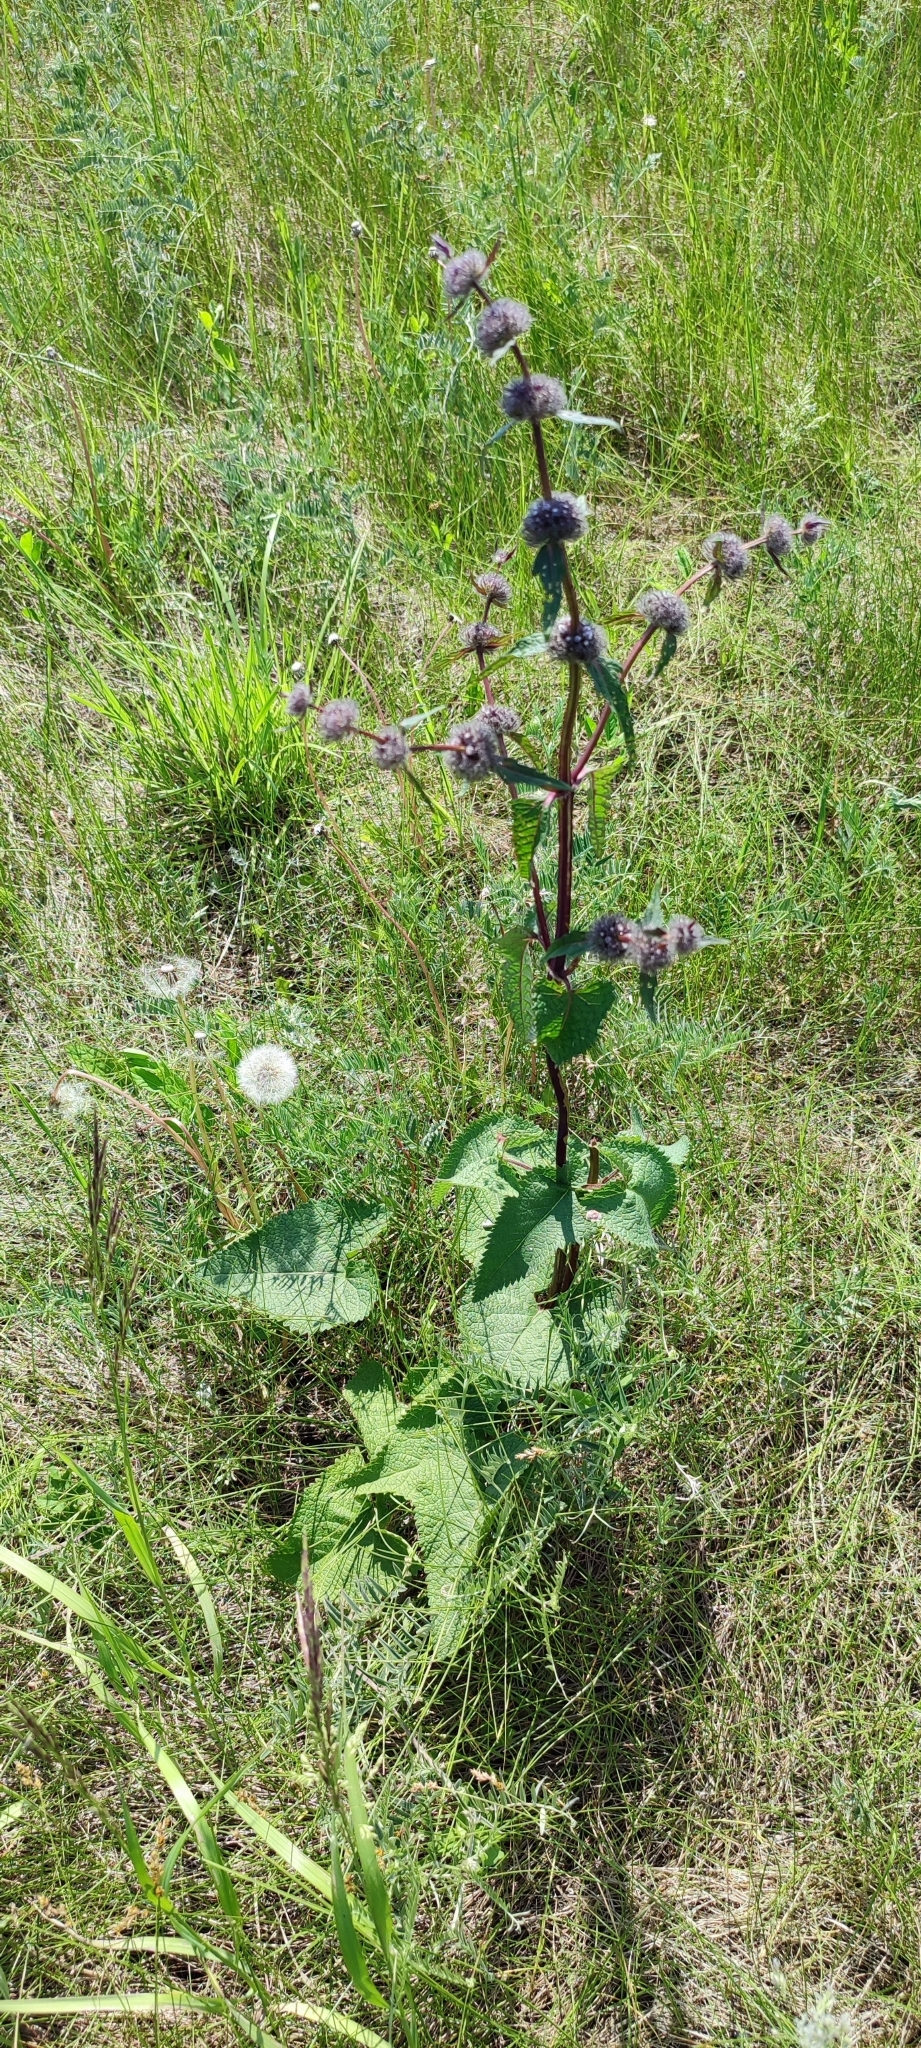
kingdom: Plantae
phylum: Tracheophyta
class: Magnoliopsida
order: Lamiales
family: Lamiaceae
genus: Phlomoides
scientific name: Phlomoides tuberosa
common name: Tuberous jerusalem sage
